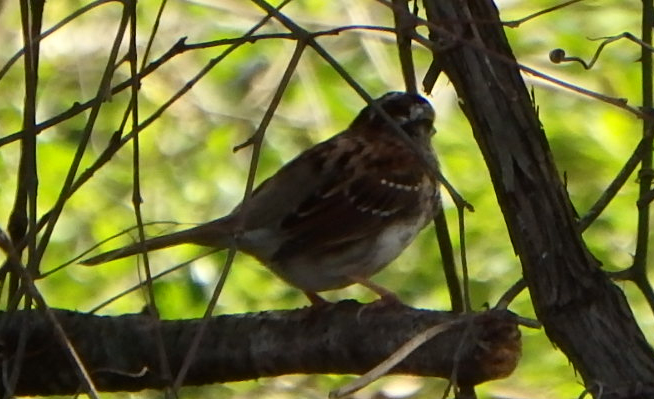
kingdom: Animalia
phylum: Chordata
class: Aves
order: Passeriformes
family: Passerellidae
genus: Zonotrichia
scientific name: Zonotrichia albicollis
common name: White-throated sparrow
